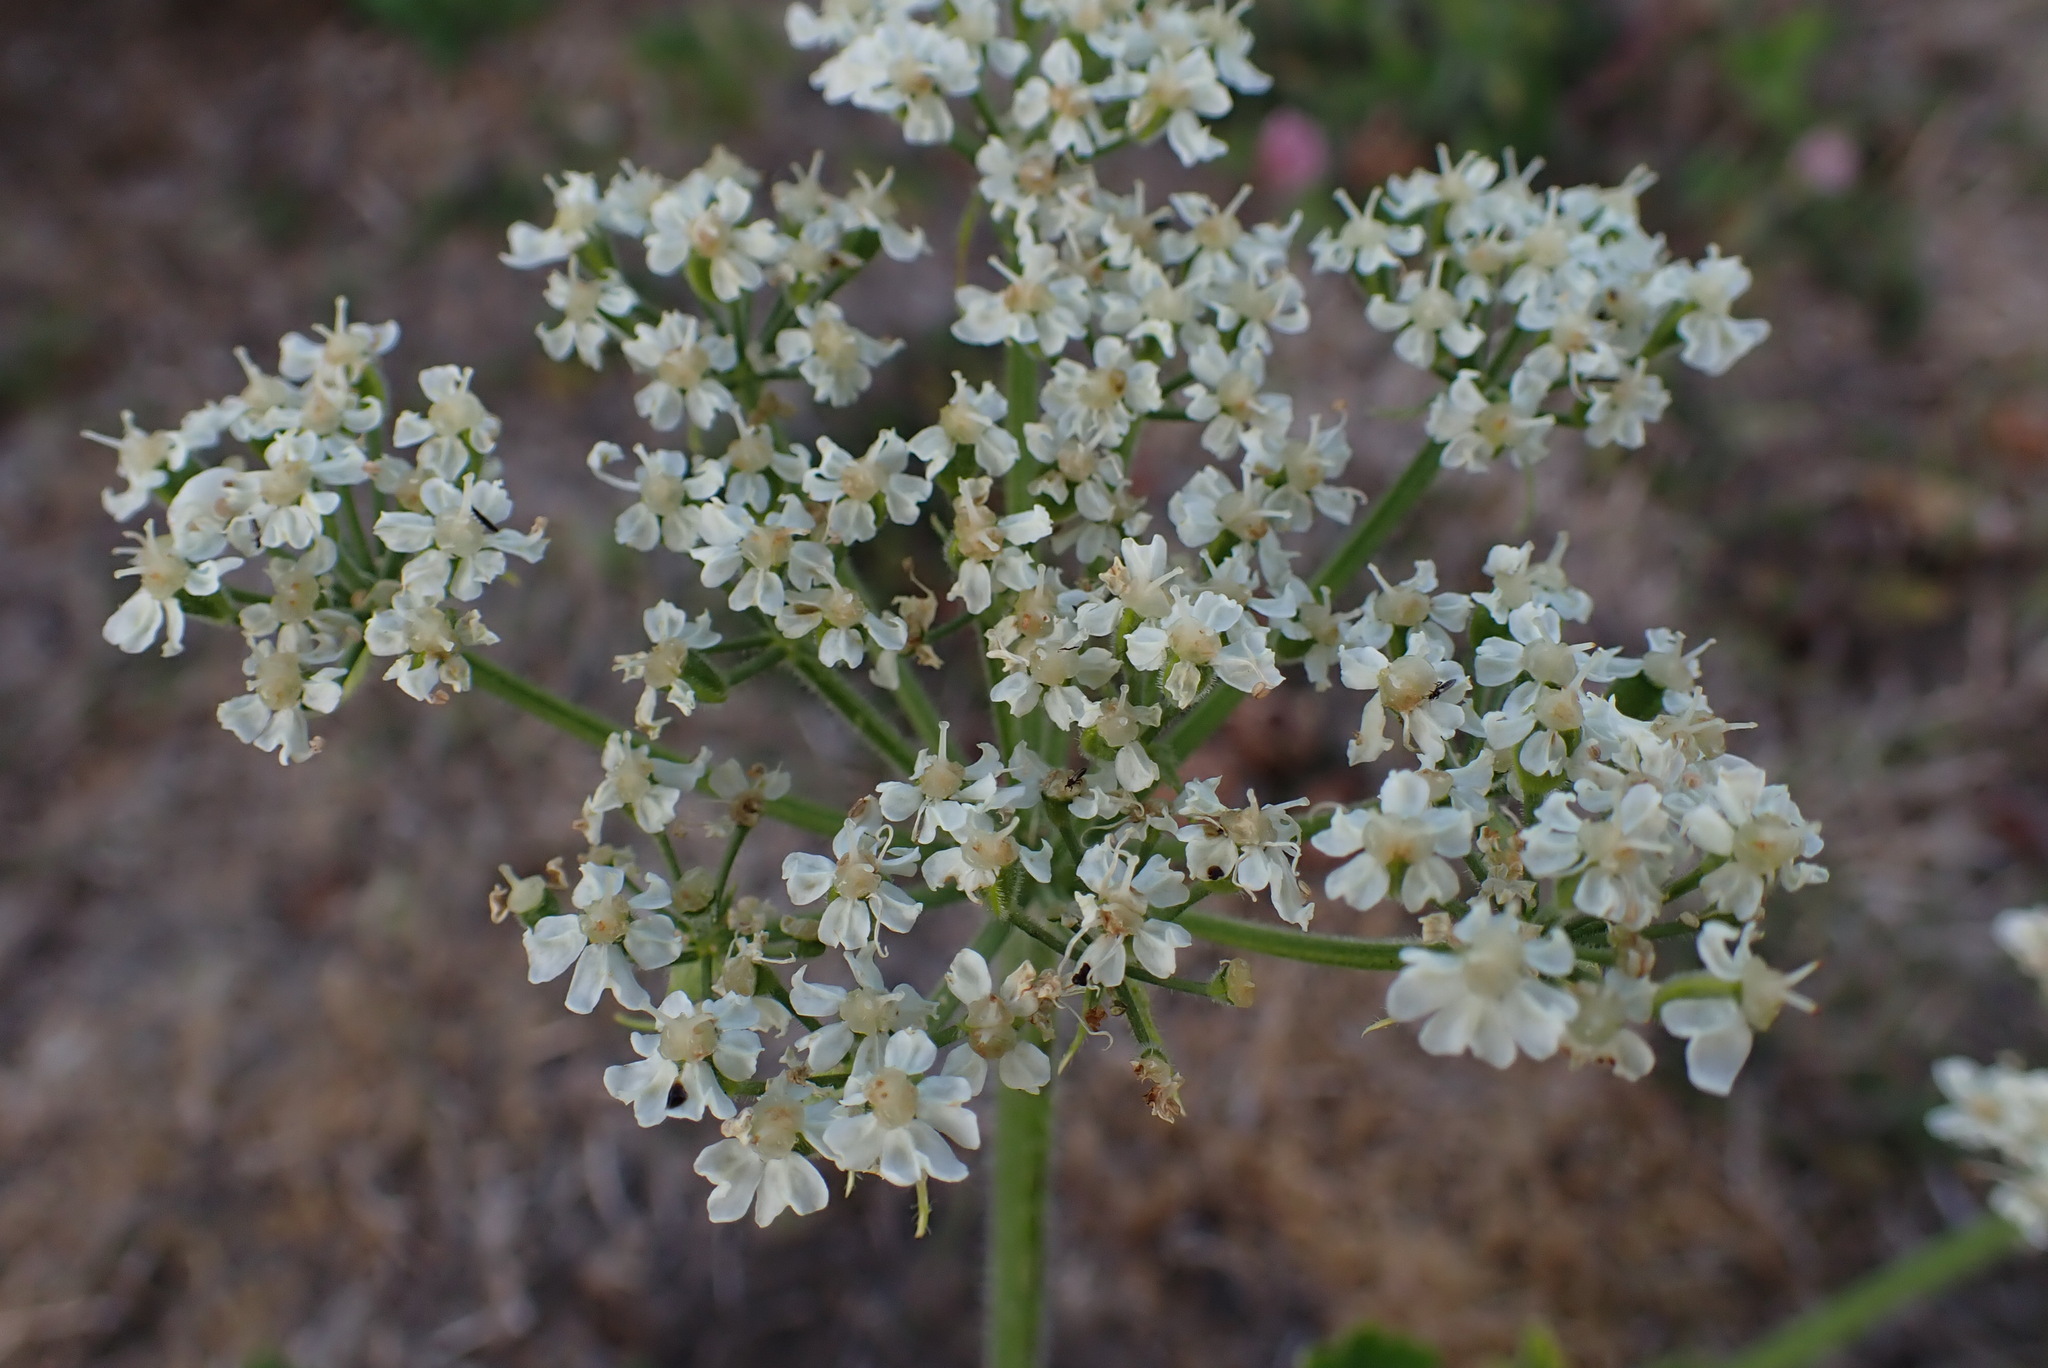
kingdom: Plantae
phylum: Tracheophyta
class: Magnoliopsida
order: Apiales
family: Apiaceae
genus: Heracleum
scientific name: Heracleum maximum
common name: American cow parsnip
